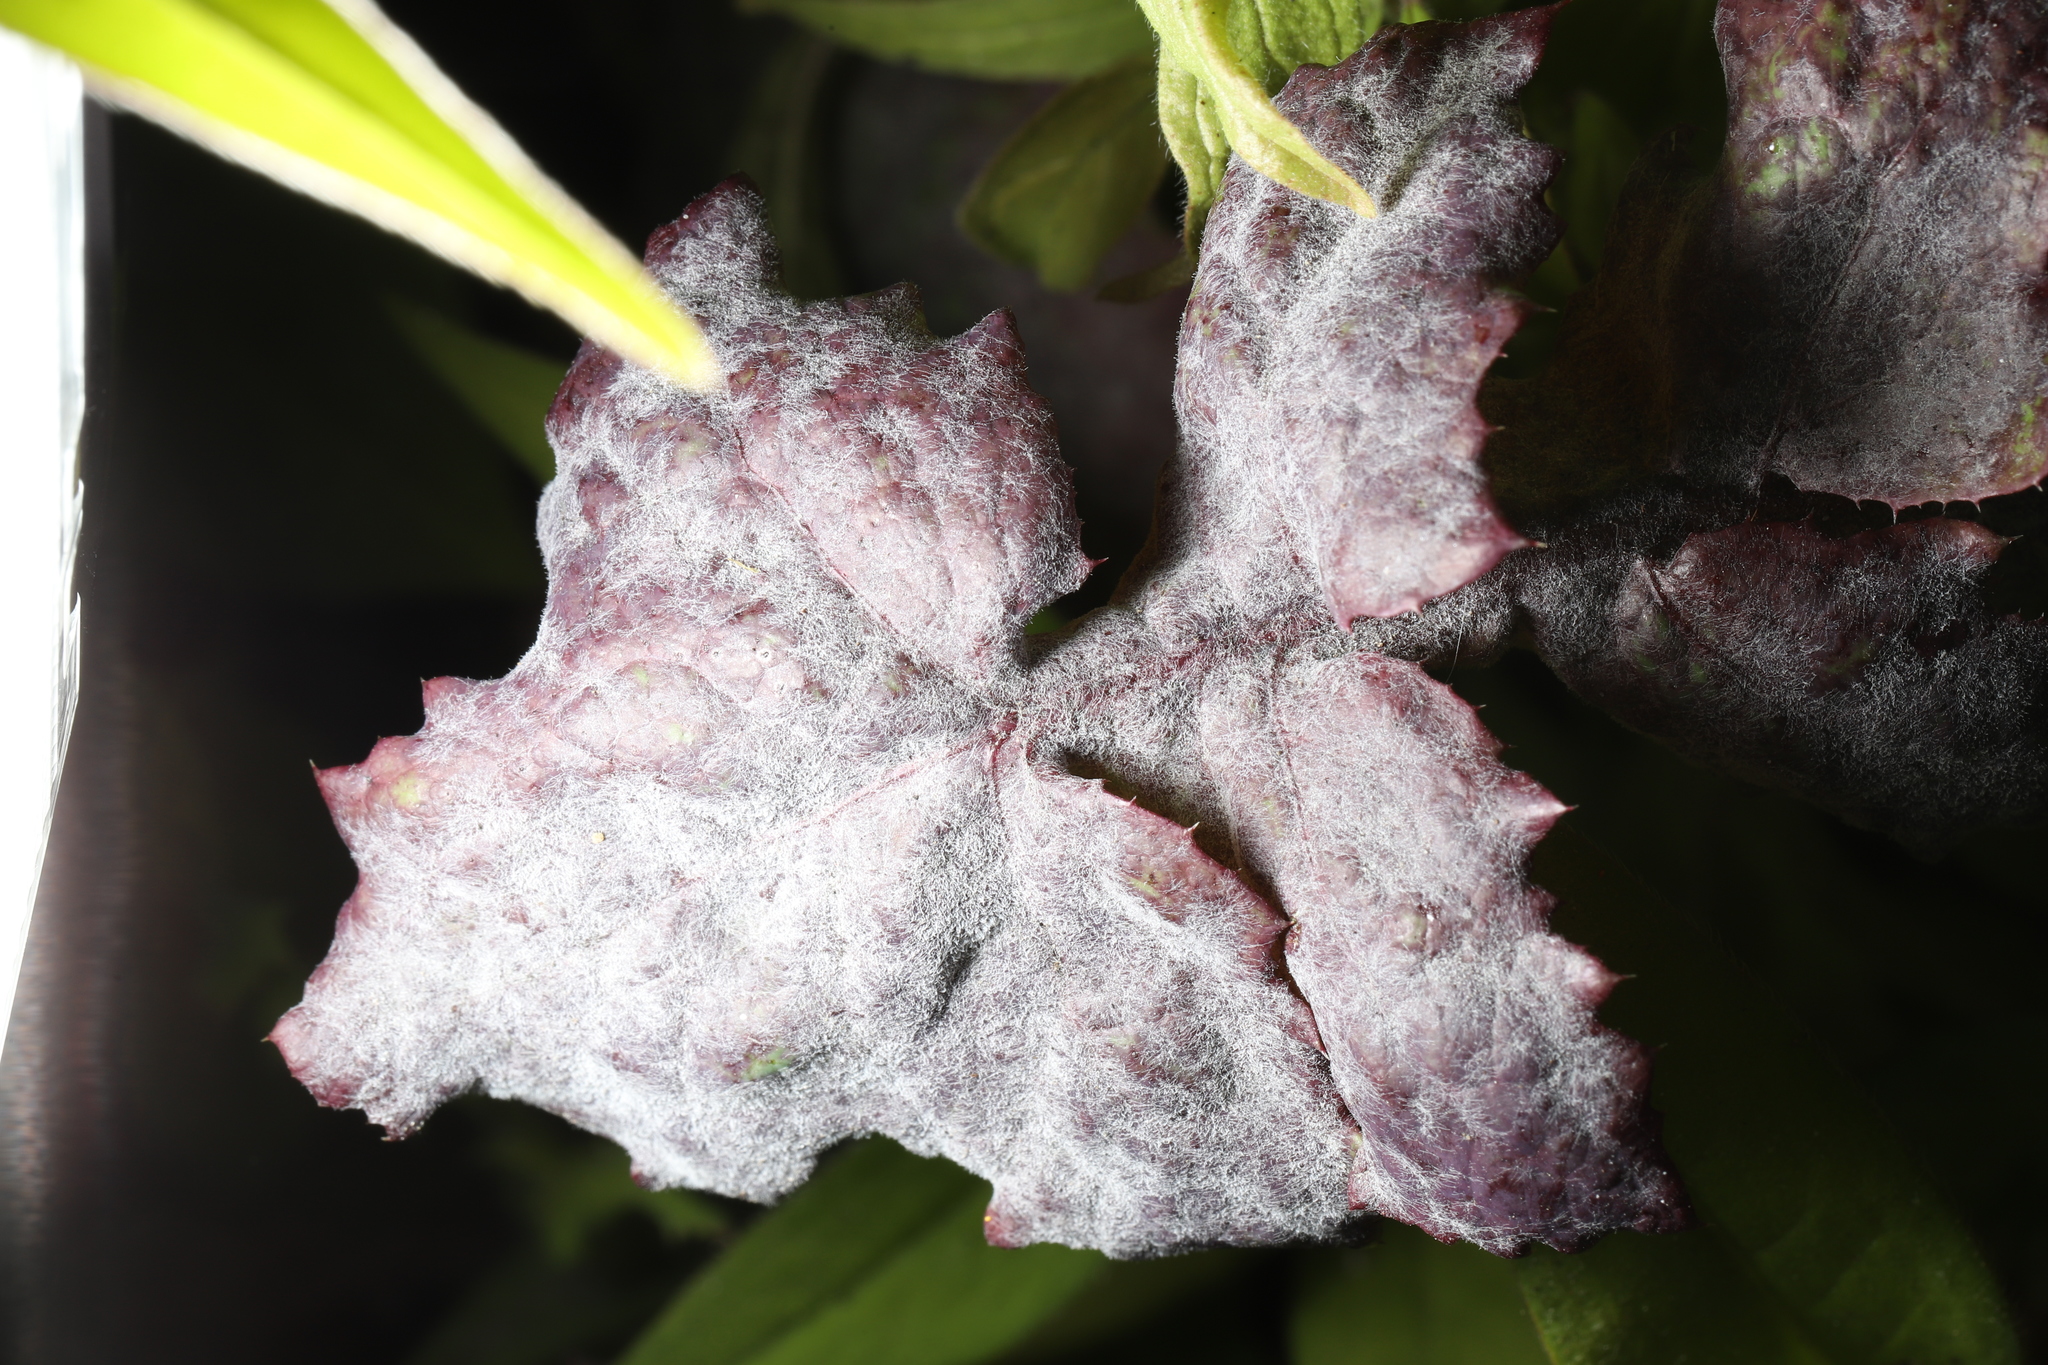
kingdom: Fungi
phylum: Ascomycota
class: Leotiomycetes
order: Helotiales
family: Erysiphaceae
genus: Golovinomyces
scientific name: Golovinomyces sonchicola
